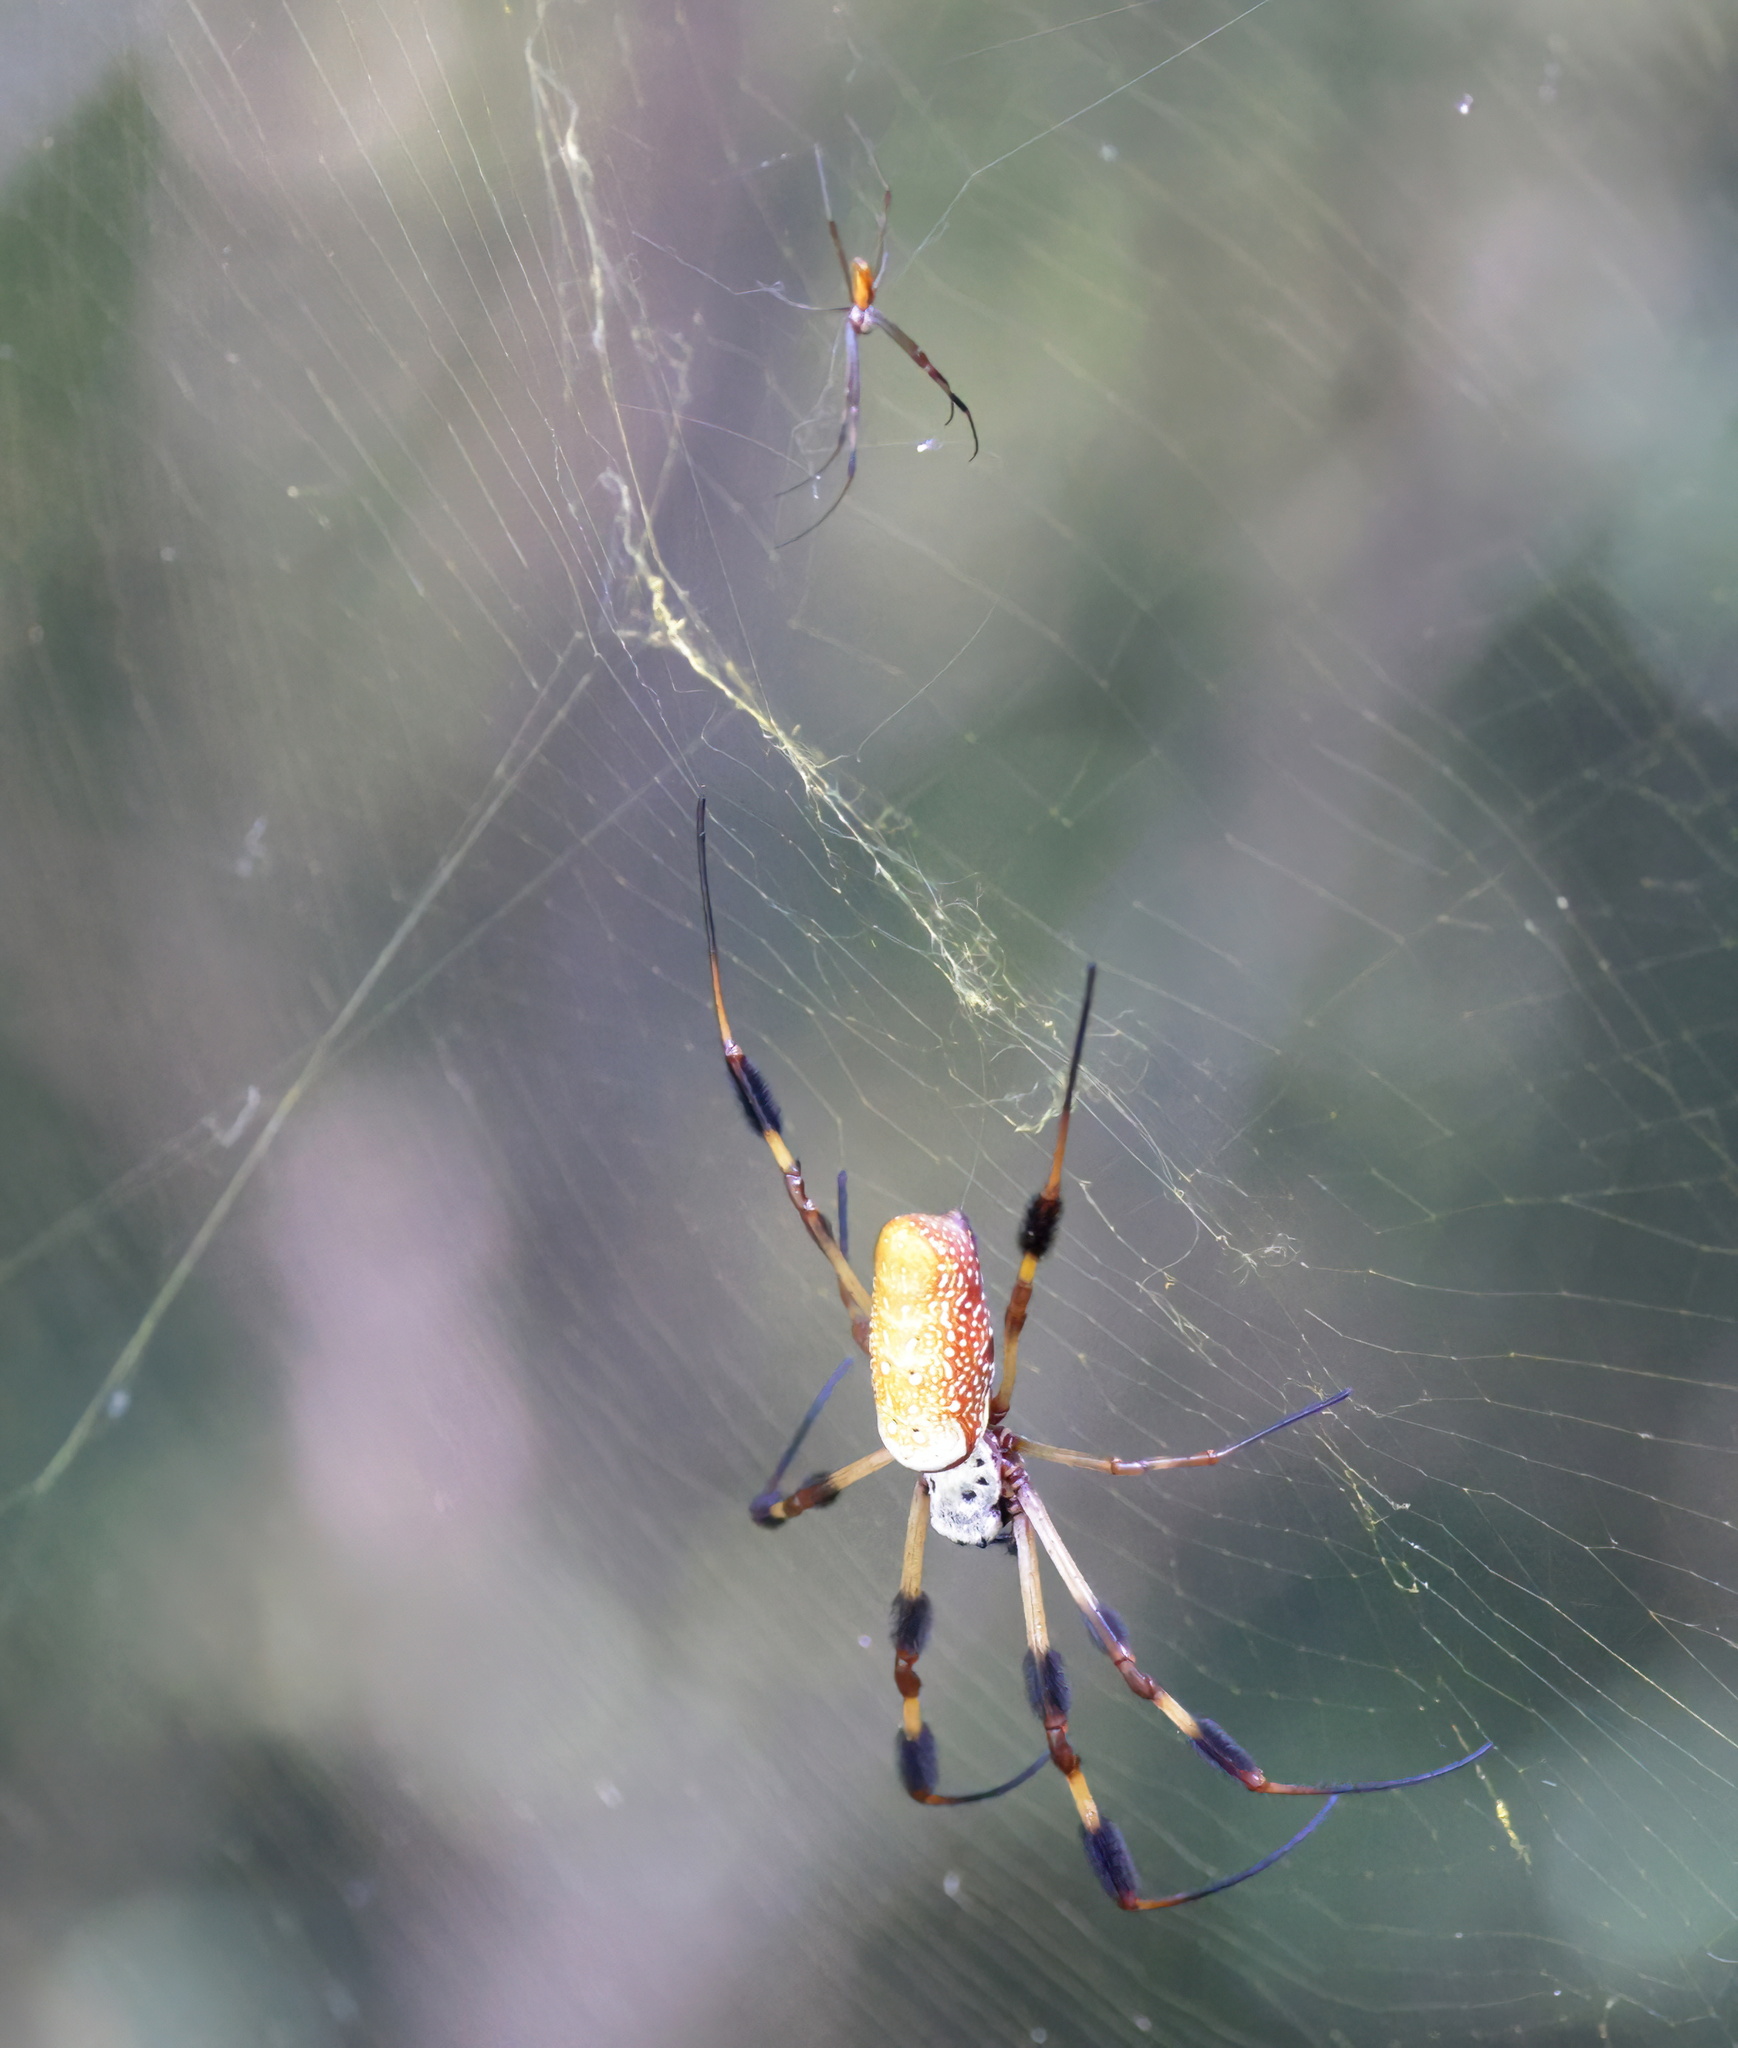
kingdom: Animalia
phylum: Arthropoda
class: Arachnida
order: Araneae
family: Araneidae
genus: Trichonephila
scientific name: Trichonephila clavipes
